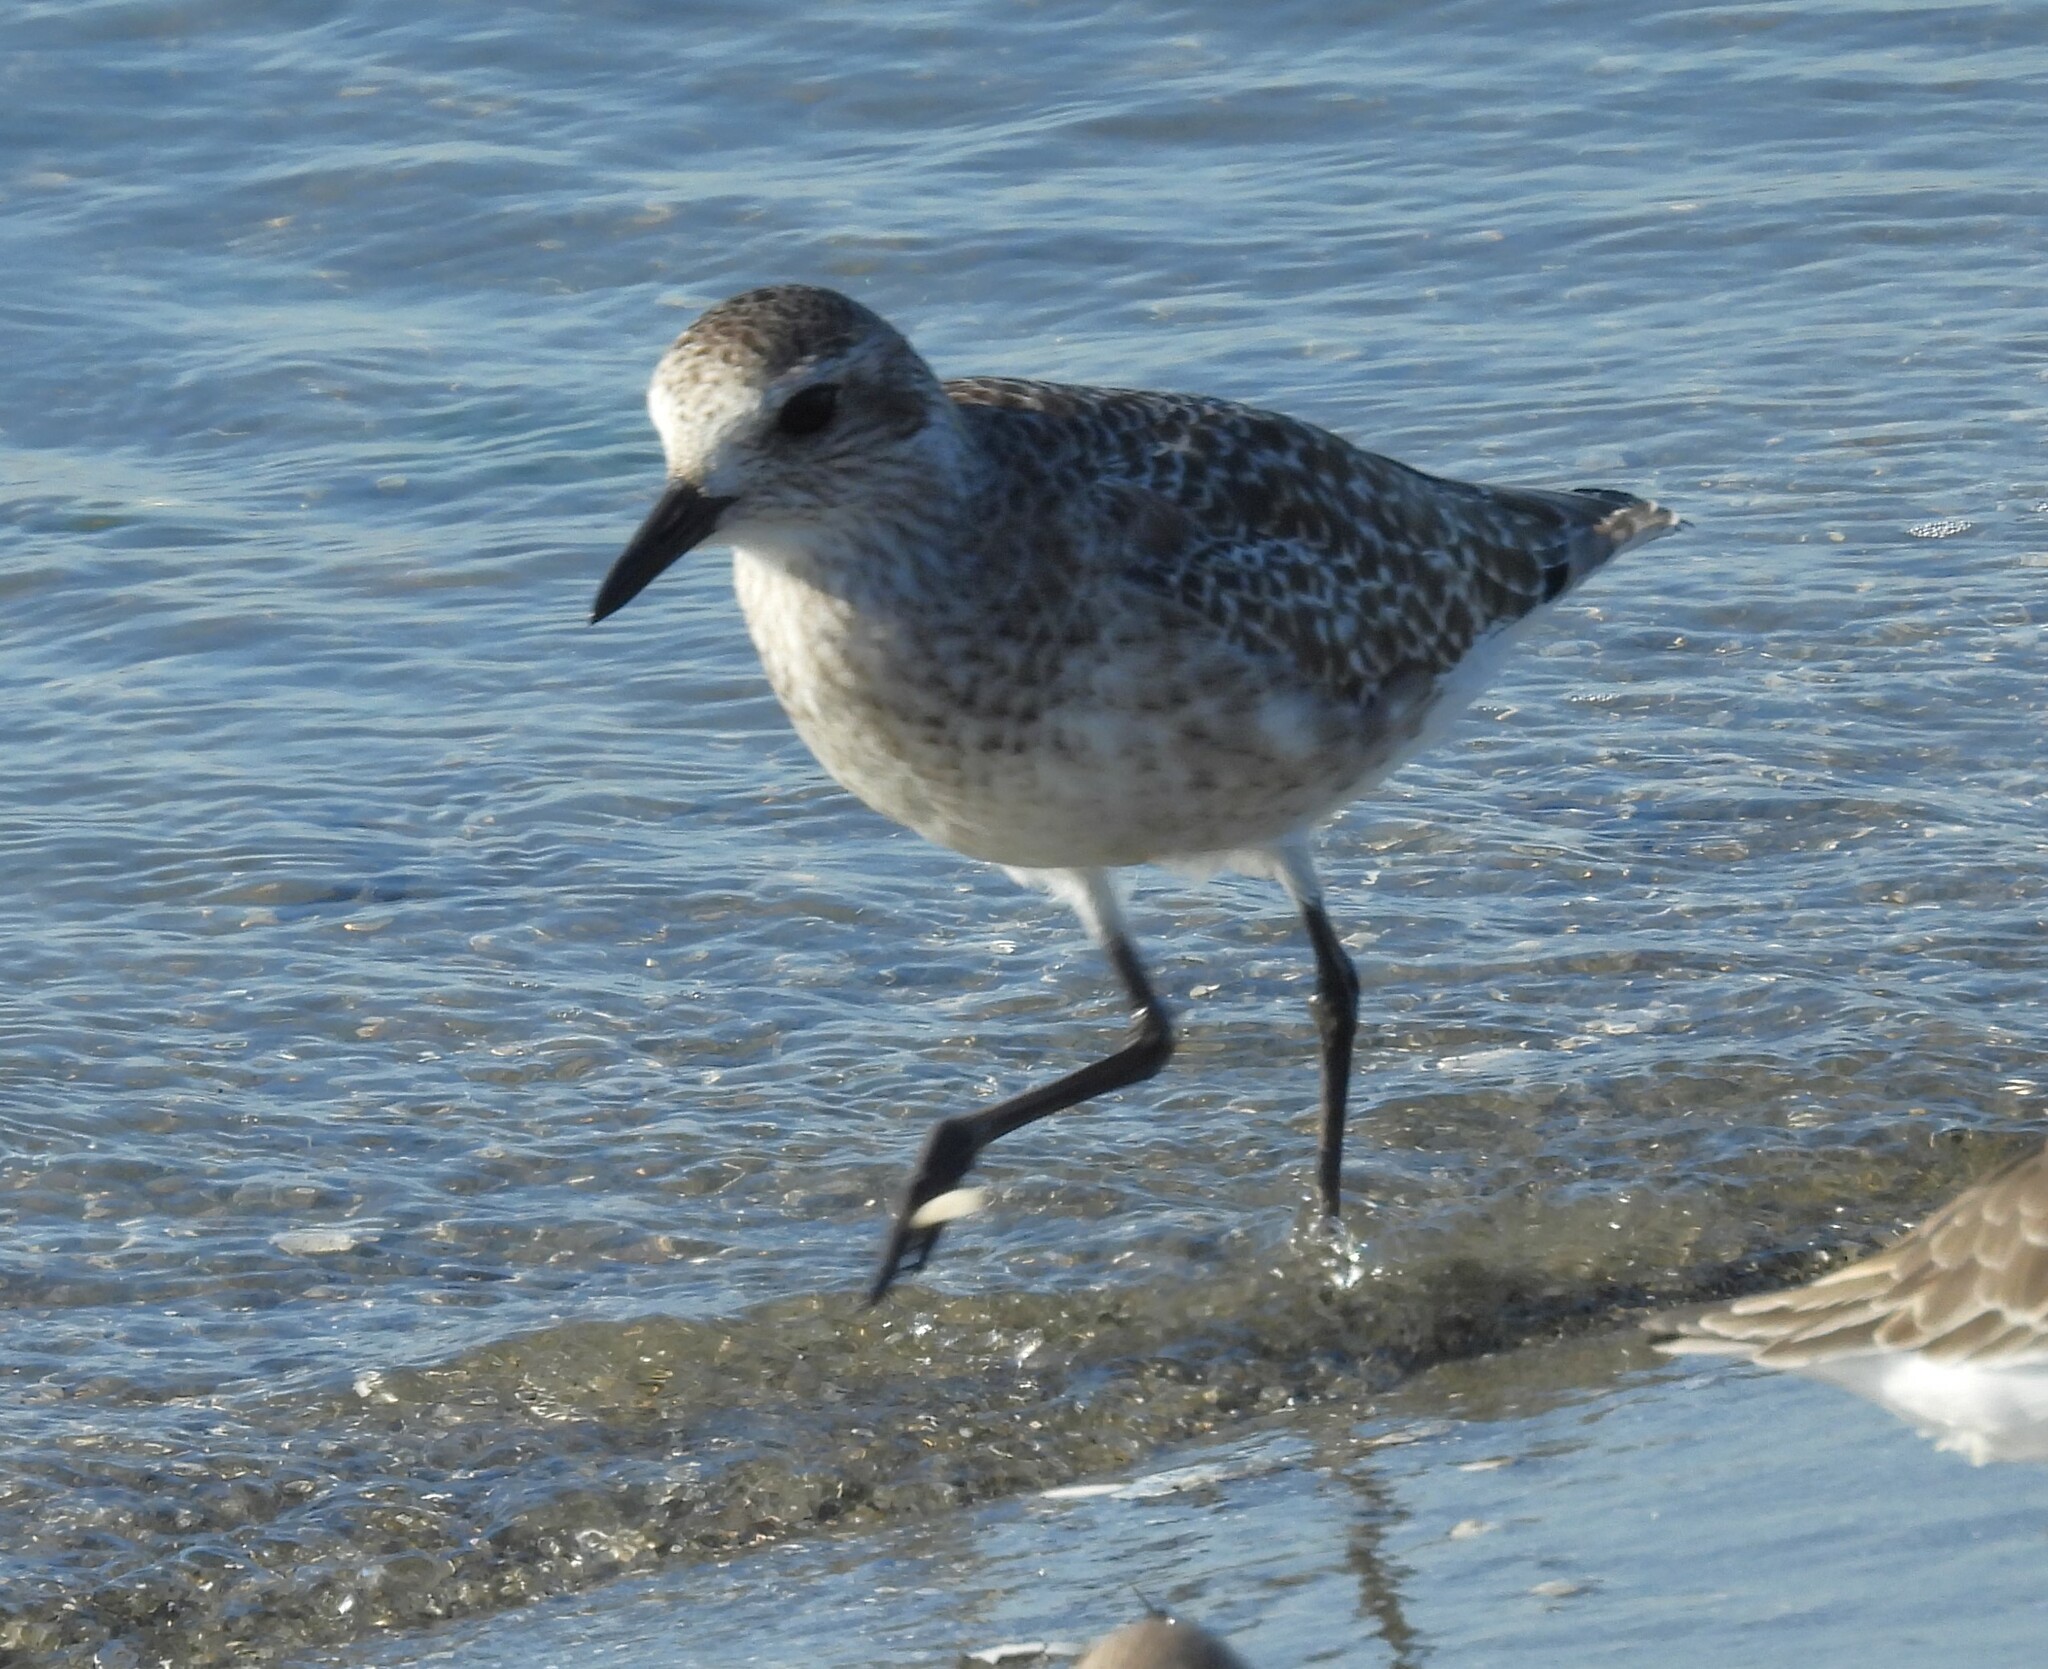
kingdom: Animalia
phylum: Chordata
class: Aves
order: Charadriiformes
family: Charadriidae
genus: Pluvialis
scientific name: Pluvialis squatarola
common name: Grey plover
